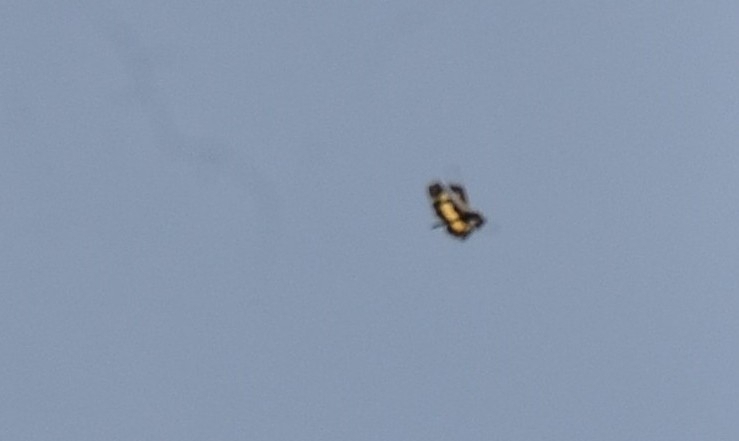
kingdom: Animalia
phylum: Arthropoda
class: Insecta
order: Odonata
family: Libellulidae
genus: Rhyothemis
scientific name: Rhyothemis variegata
